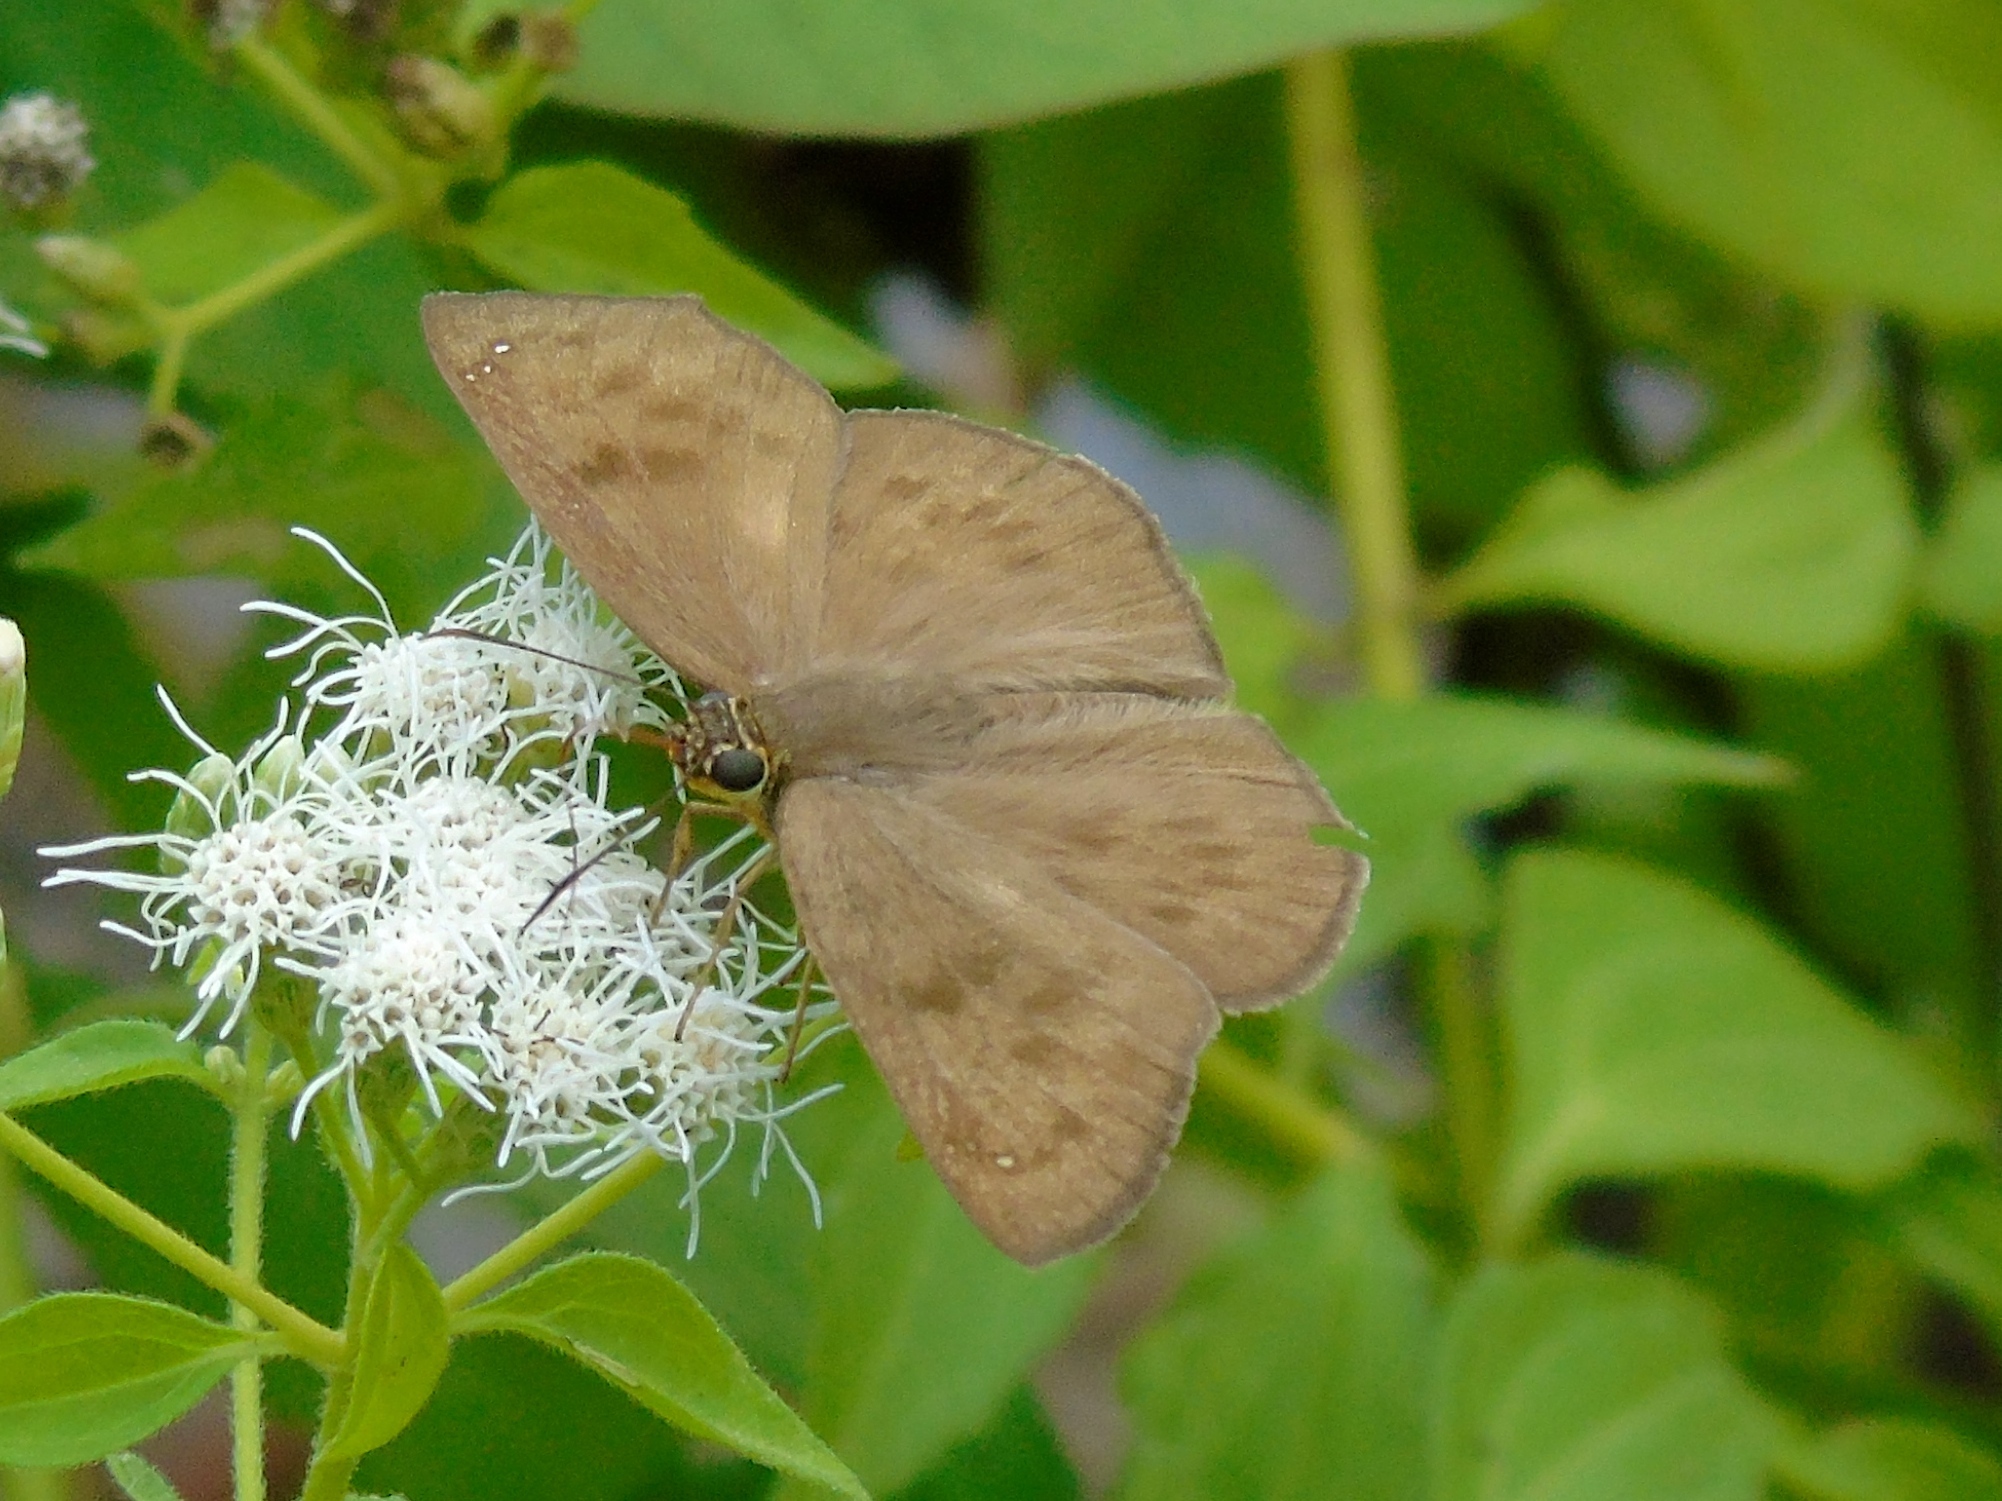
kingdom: Animalia
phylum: Arthropoda
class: Insecta
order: Lepidoptera
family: Hesperiidae
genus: Grais
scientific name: Grais stigmaticus
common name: Hermit skipper
